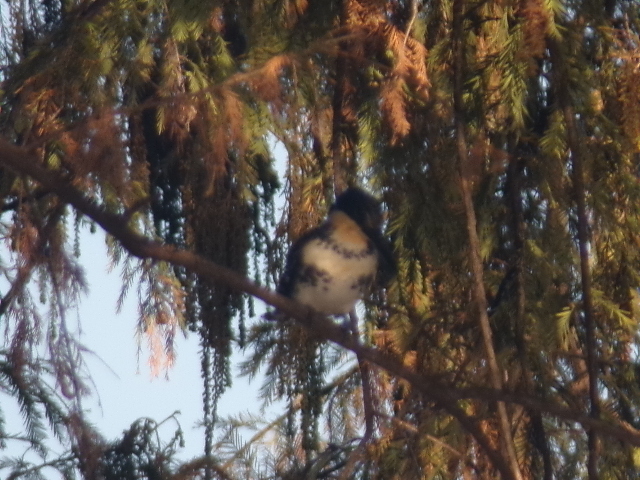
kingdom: Animalia
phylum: Chordata
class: Aves
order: Coraciiformes
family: Alcedinidae
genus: Chloroceryle
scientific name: Chloroceryle americana
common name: Green kingfisher
